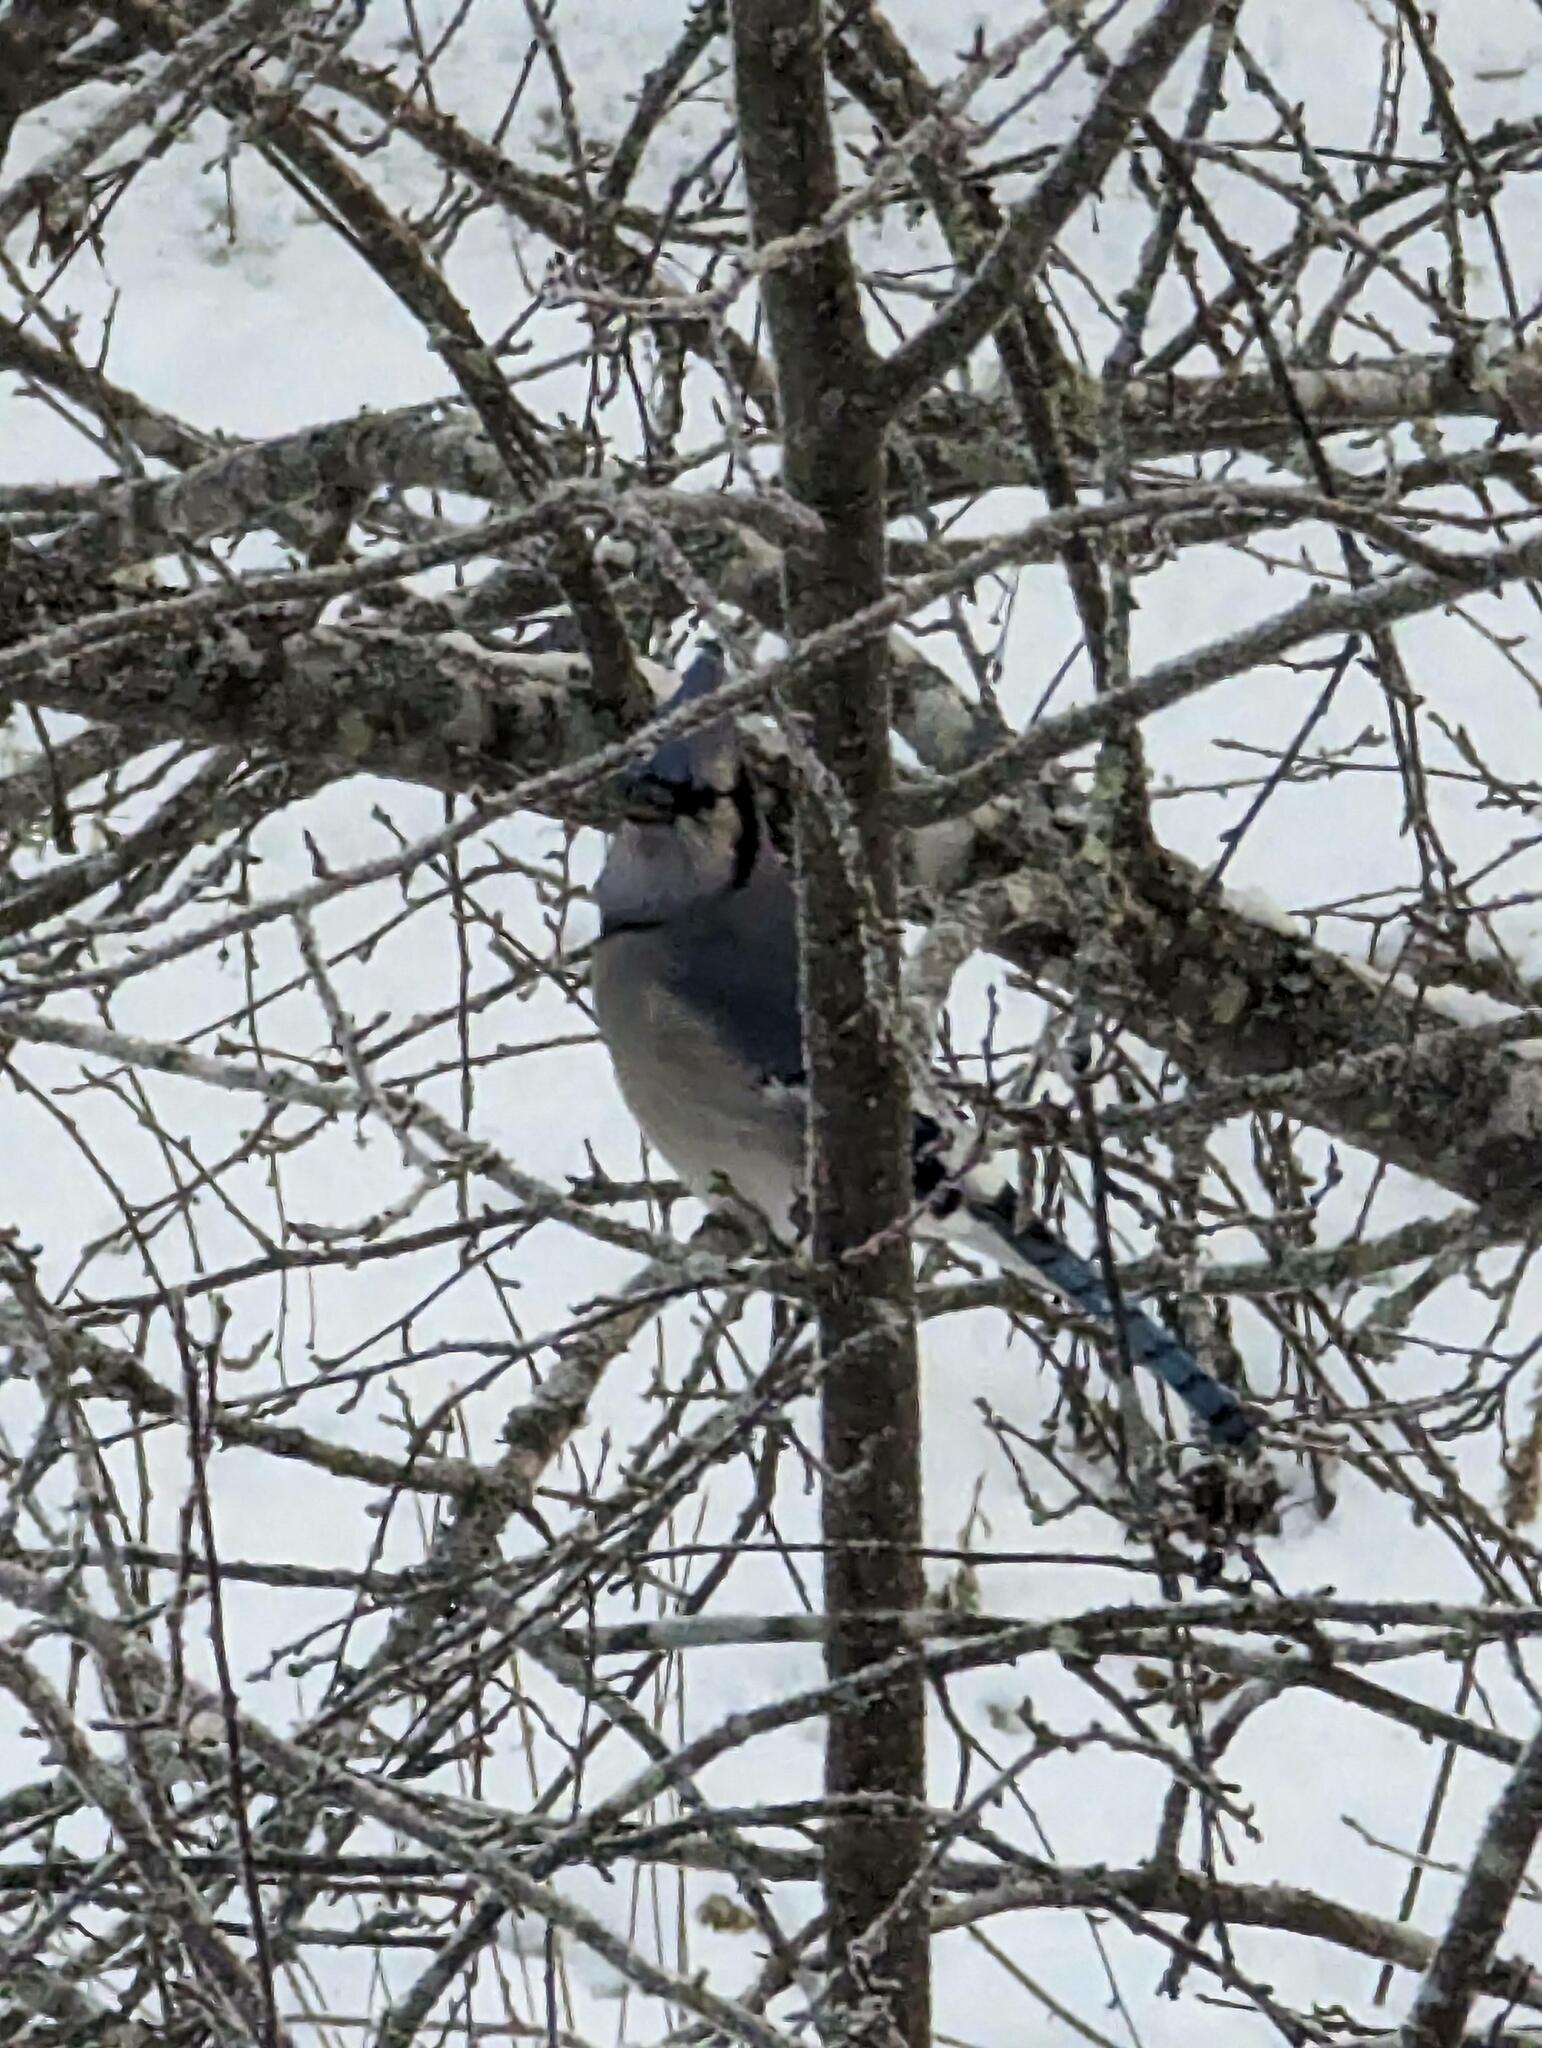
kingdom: Animalia
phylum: Chordata
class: Aves
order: Passeriformes
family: Corvidae
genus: Cyanocitta
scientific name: Cyanocitta cristata
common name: Blue jay
